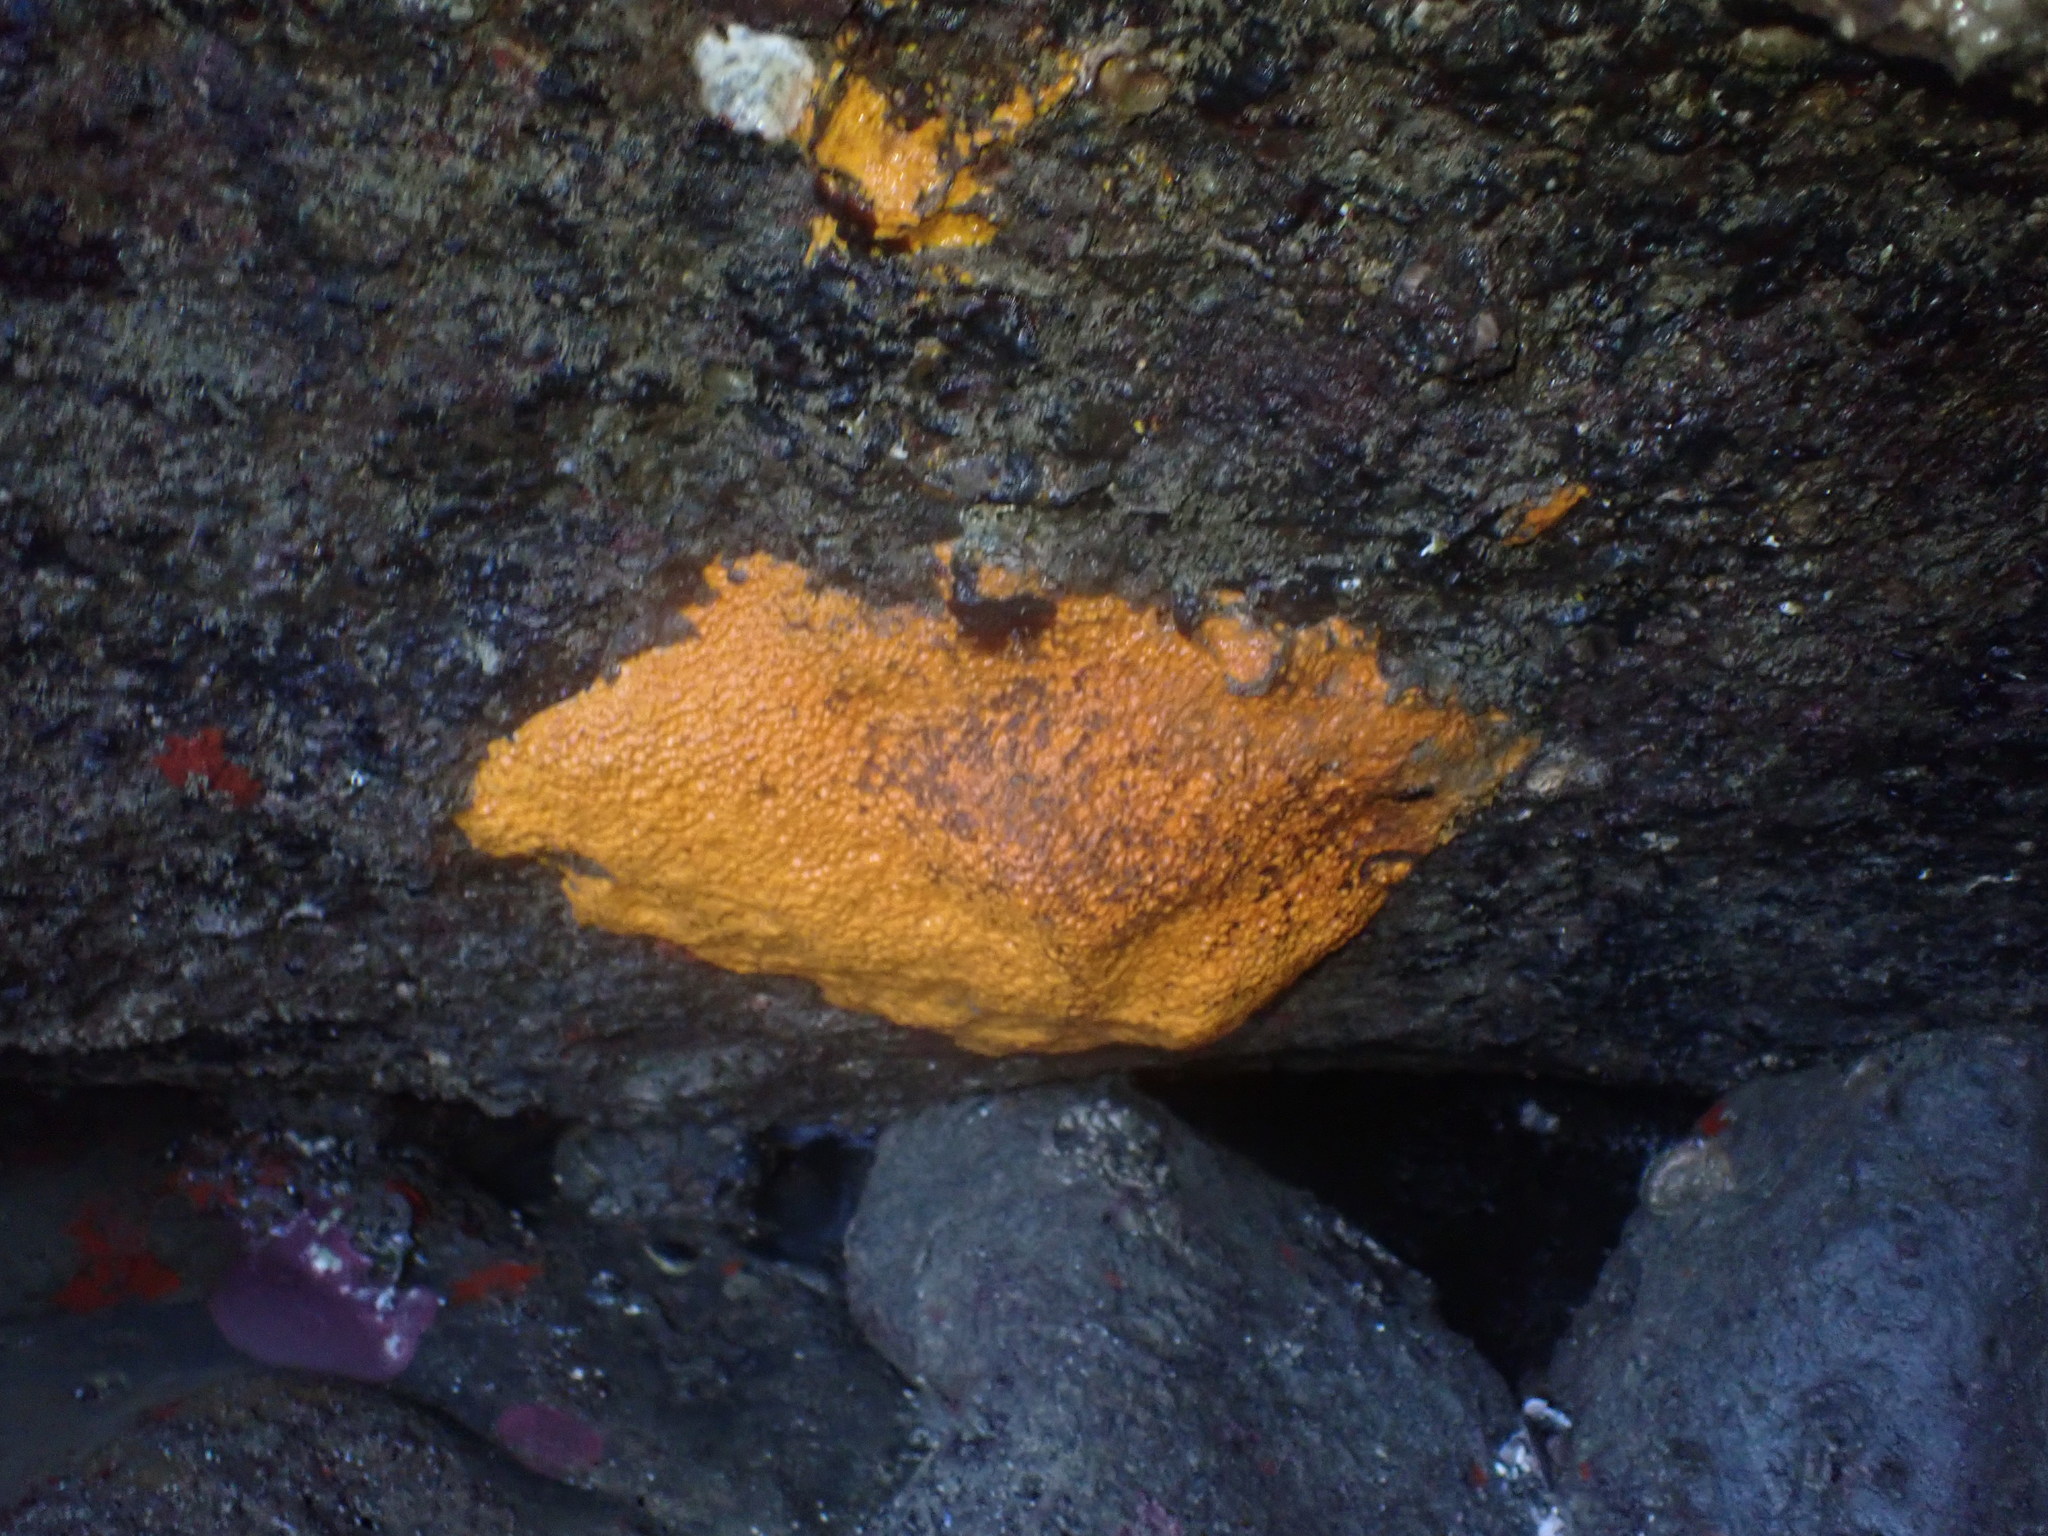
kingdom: Animalia
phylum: Porifera
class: Demospongiae
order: Clionaida
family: Clionaidae
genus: Cliona
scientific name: Cliona celata
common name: Boring sponge
